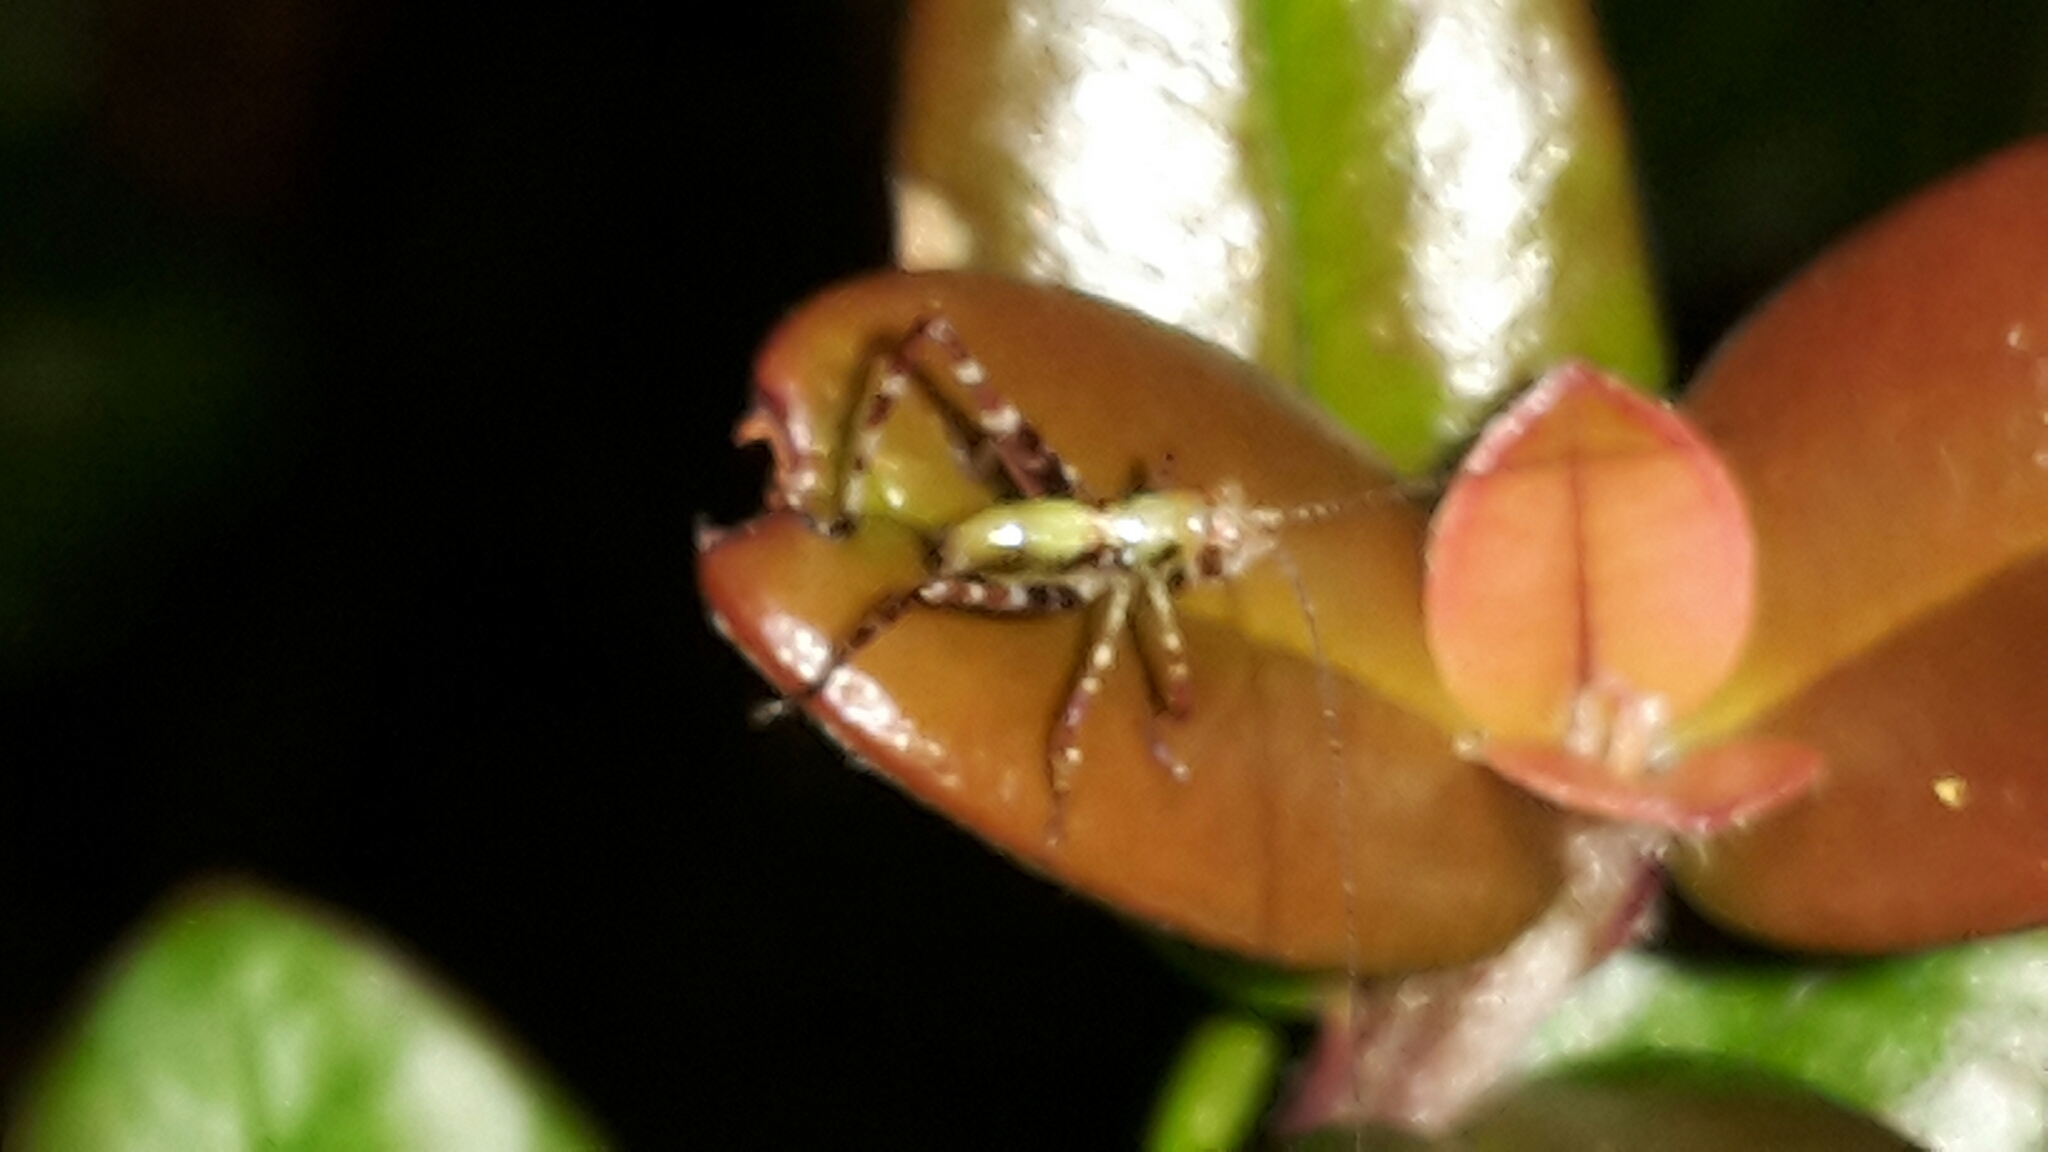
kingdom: Animalia
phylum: Arthropoda
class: Insecta
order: Orthoptera
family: Tettigoniidae
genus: Caedicia
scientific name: Caedicia simplex
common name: Common garden katydid
